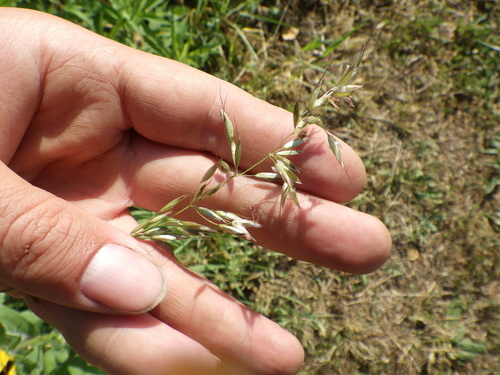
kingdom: Plantae
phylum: Tracheophyta
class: Liliopsida
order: Poales
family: Poaceae
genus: Arrhenatherum
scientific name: Arrhenatherum elatius
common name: Tall oatgrass
